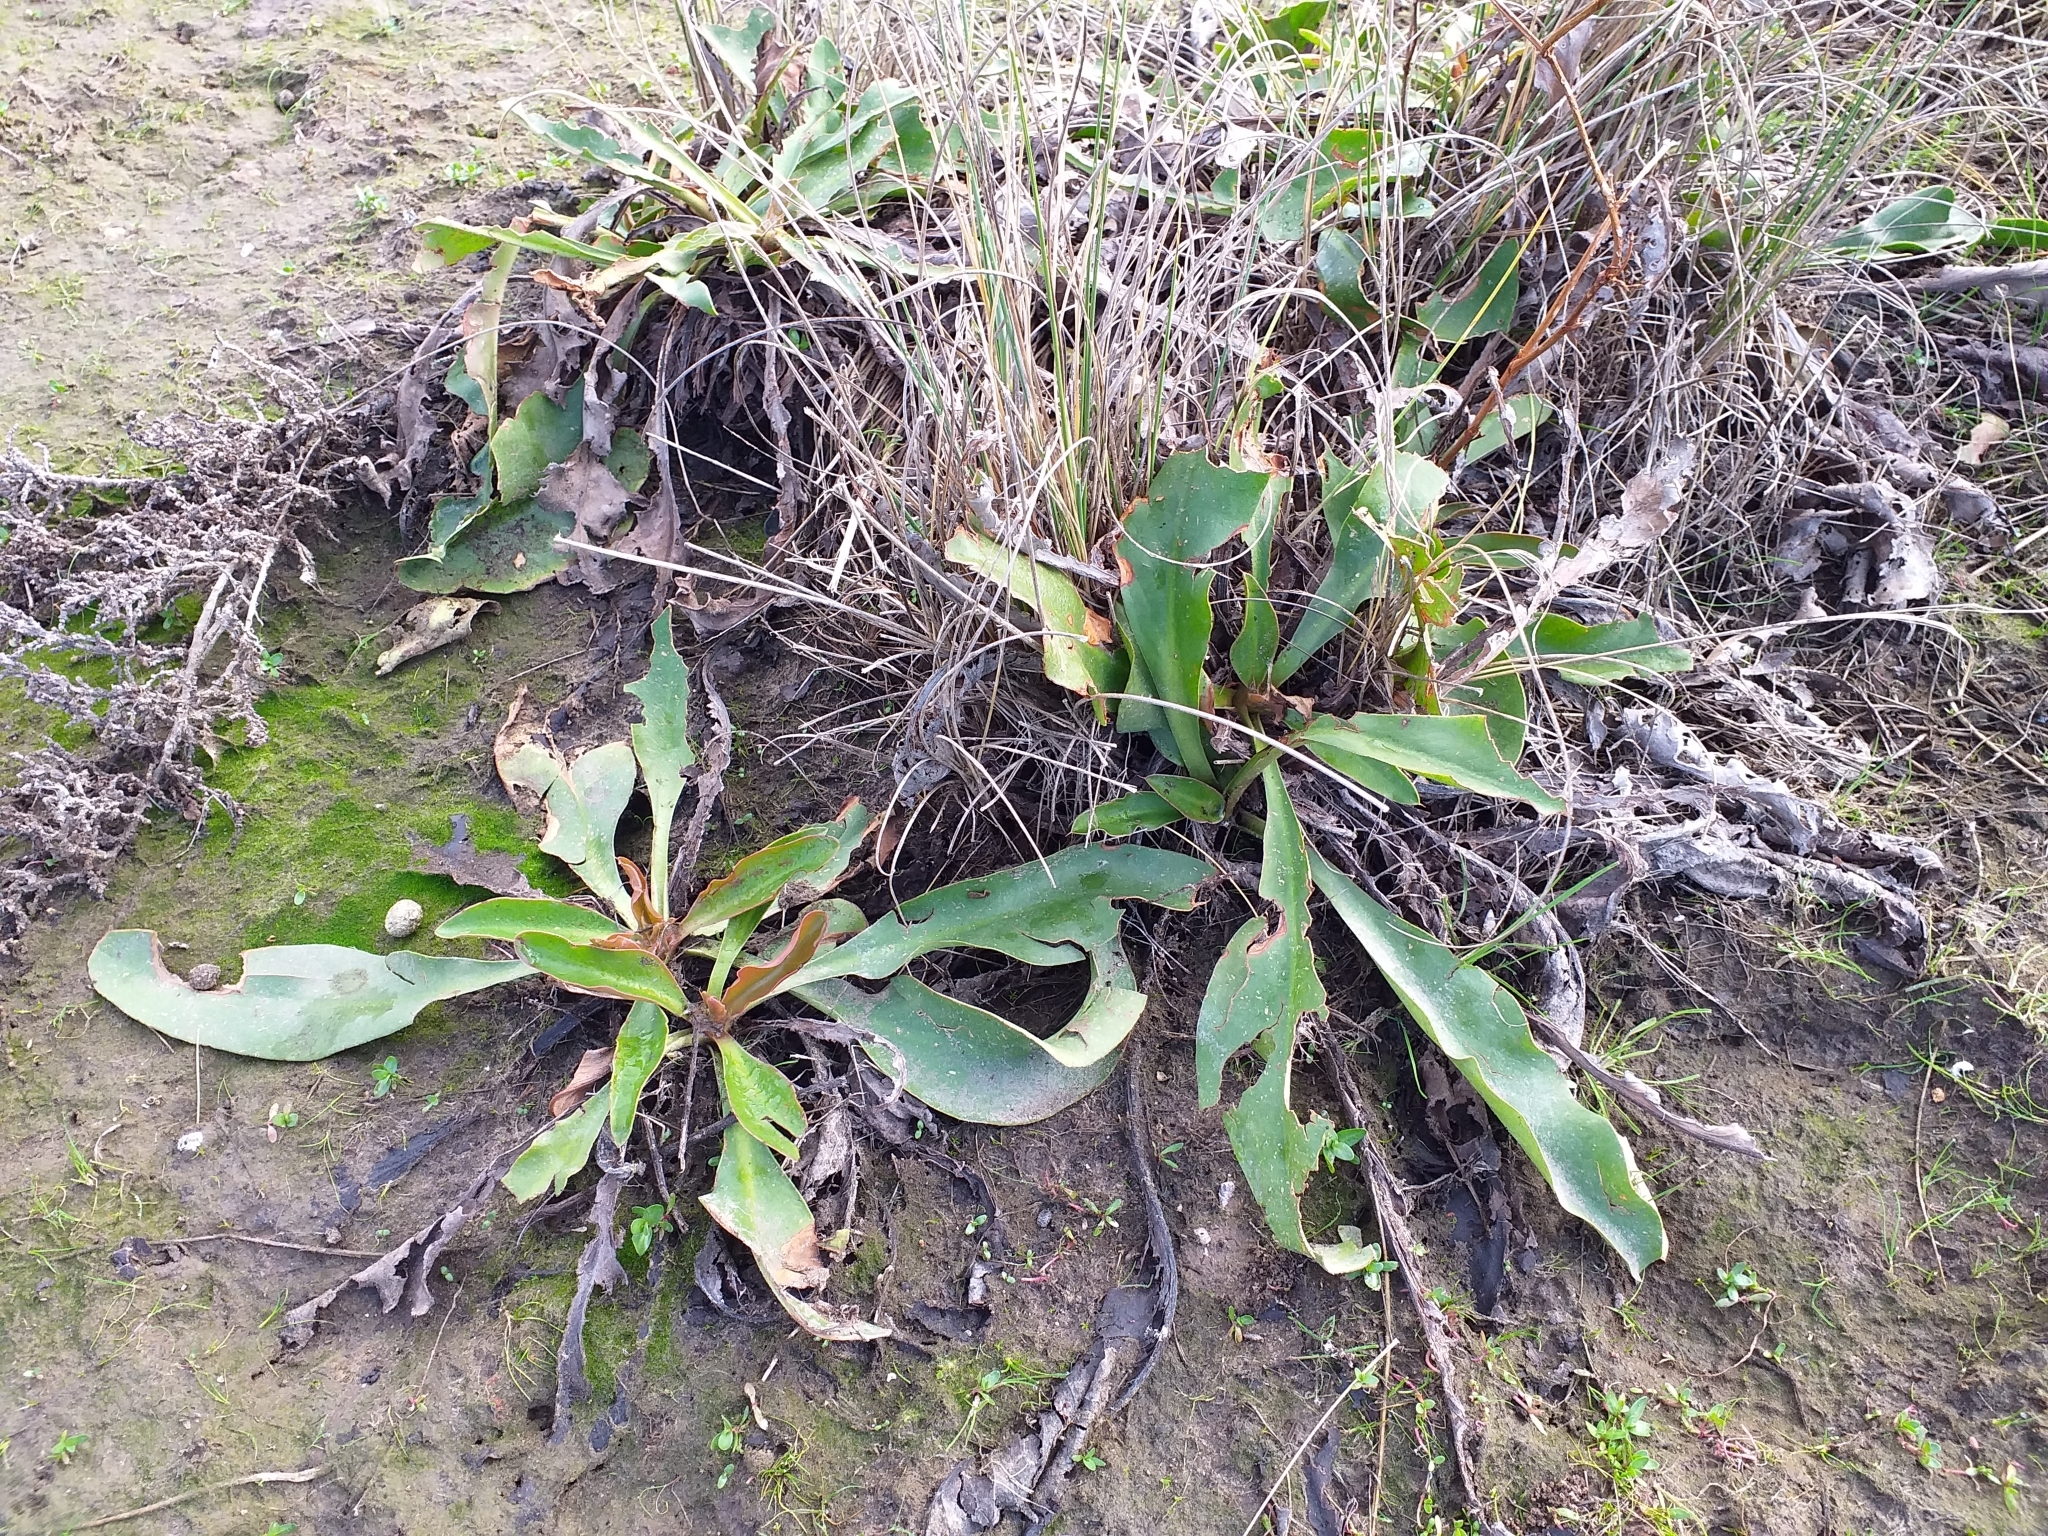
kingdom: Plantae
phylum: Tracheophyta
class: Magnoliopsida
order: Caryophyllales
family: Plumbaginaceae
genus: Limonium
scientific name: Limonium narbonense
